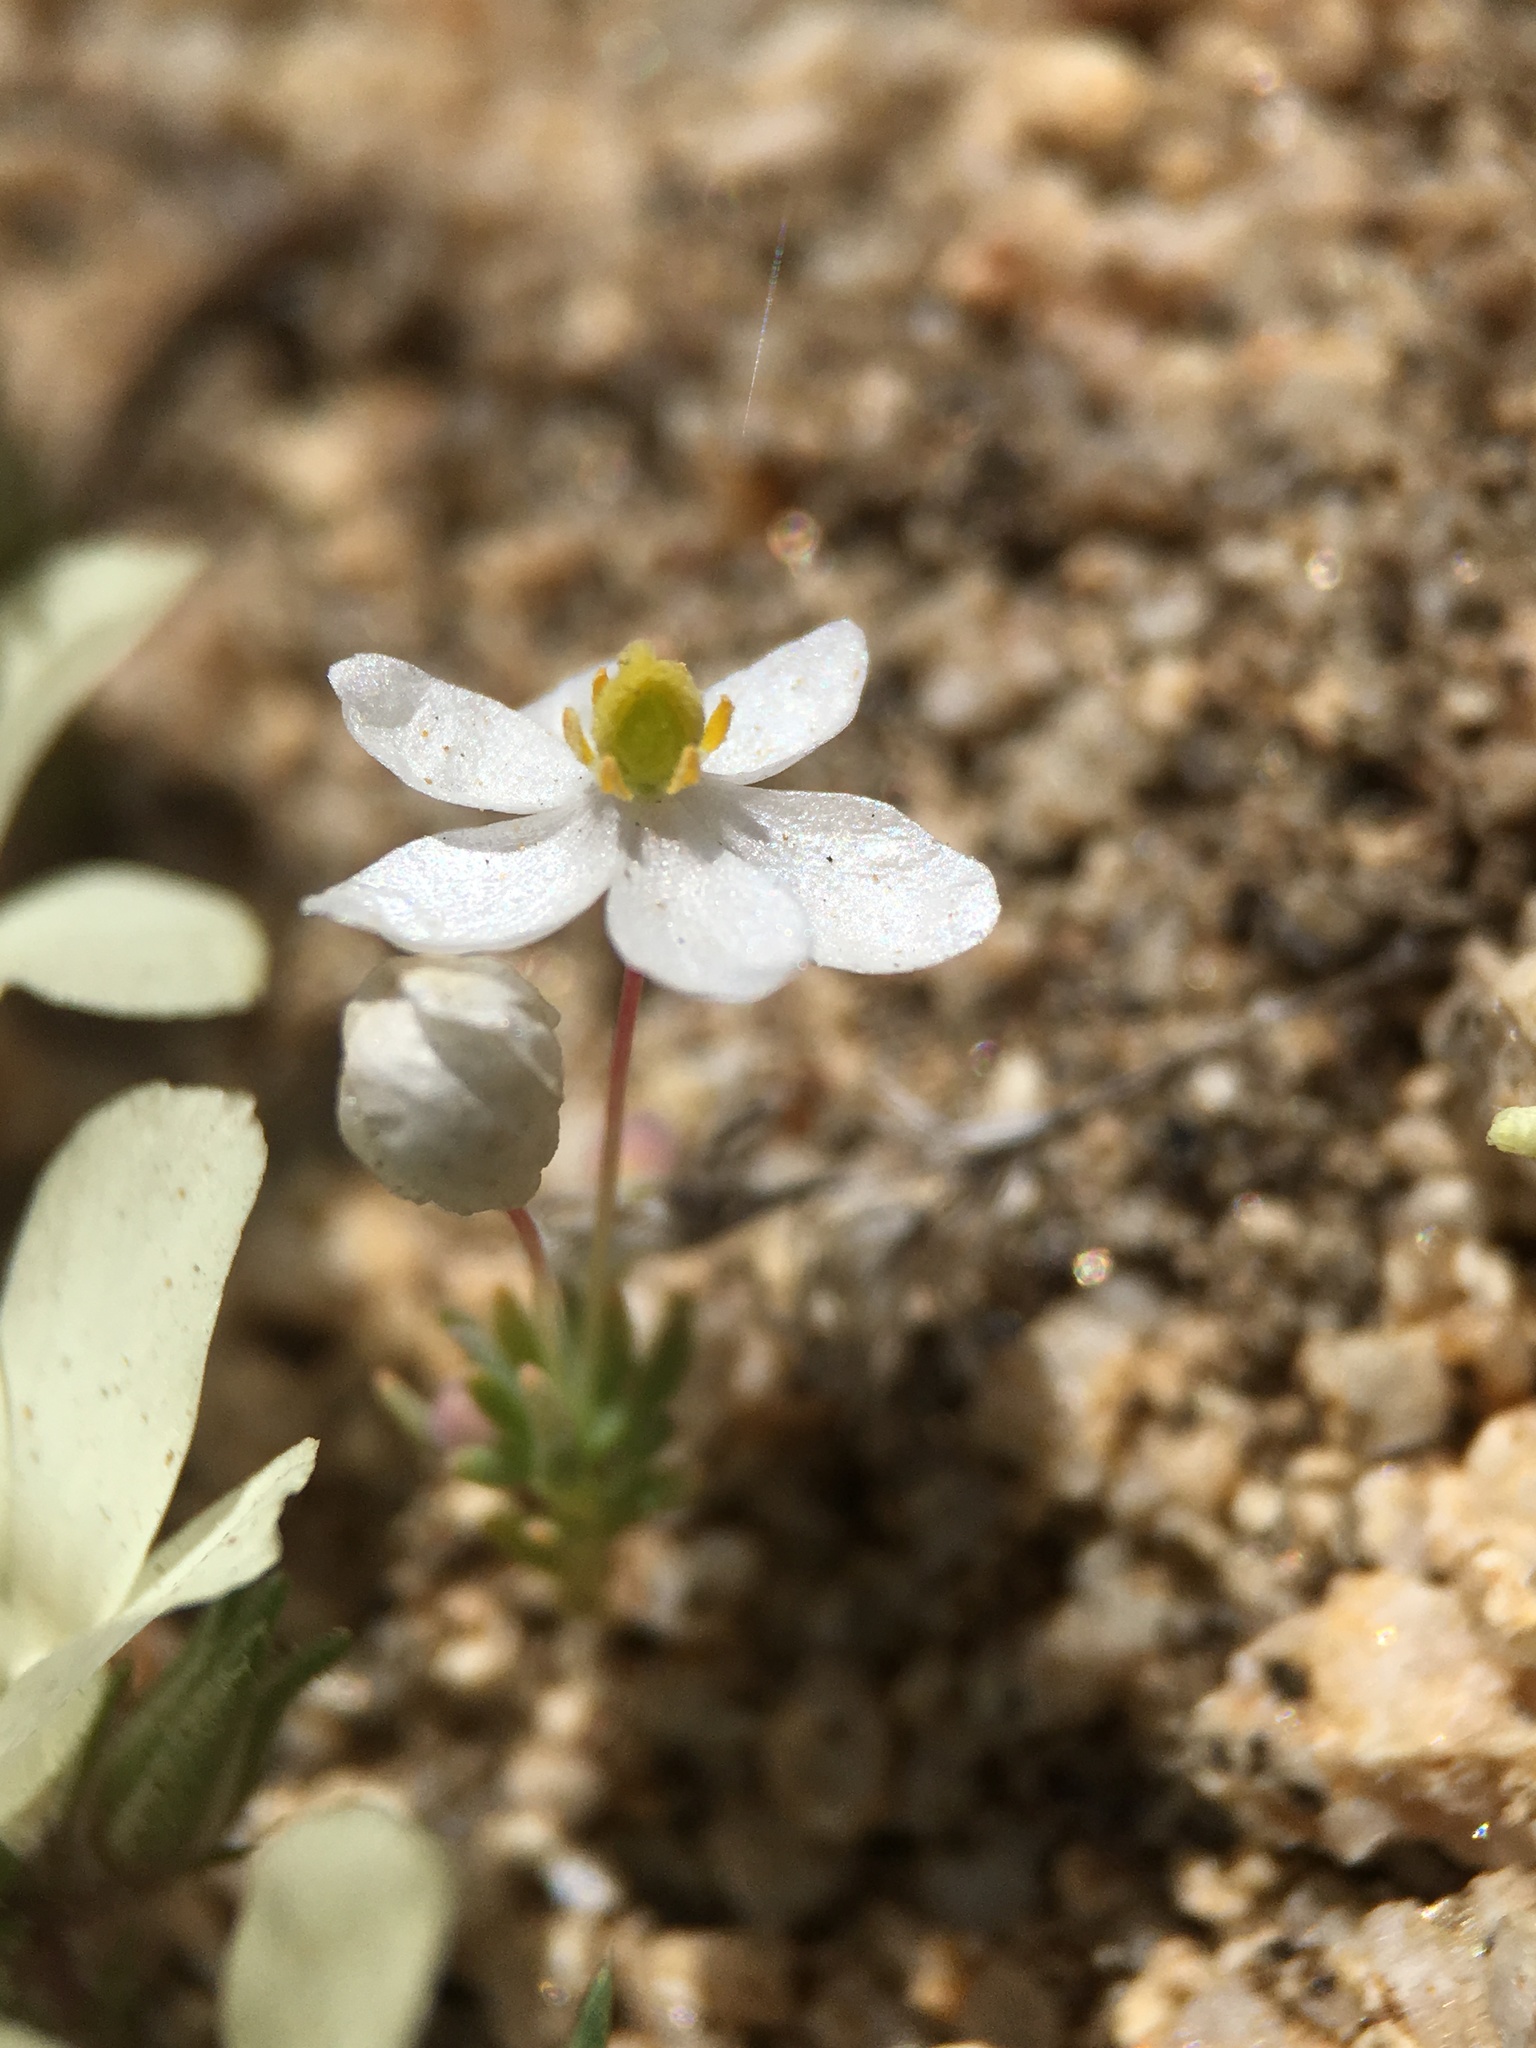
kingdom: Plantae
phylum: Tracheophyta
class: Magnoliopsida
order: Ranunculales
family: Papaveraceae
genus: Canbya
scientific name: Canbya candida
